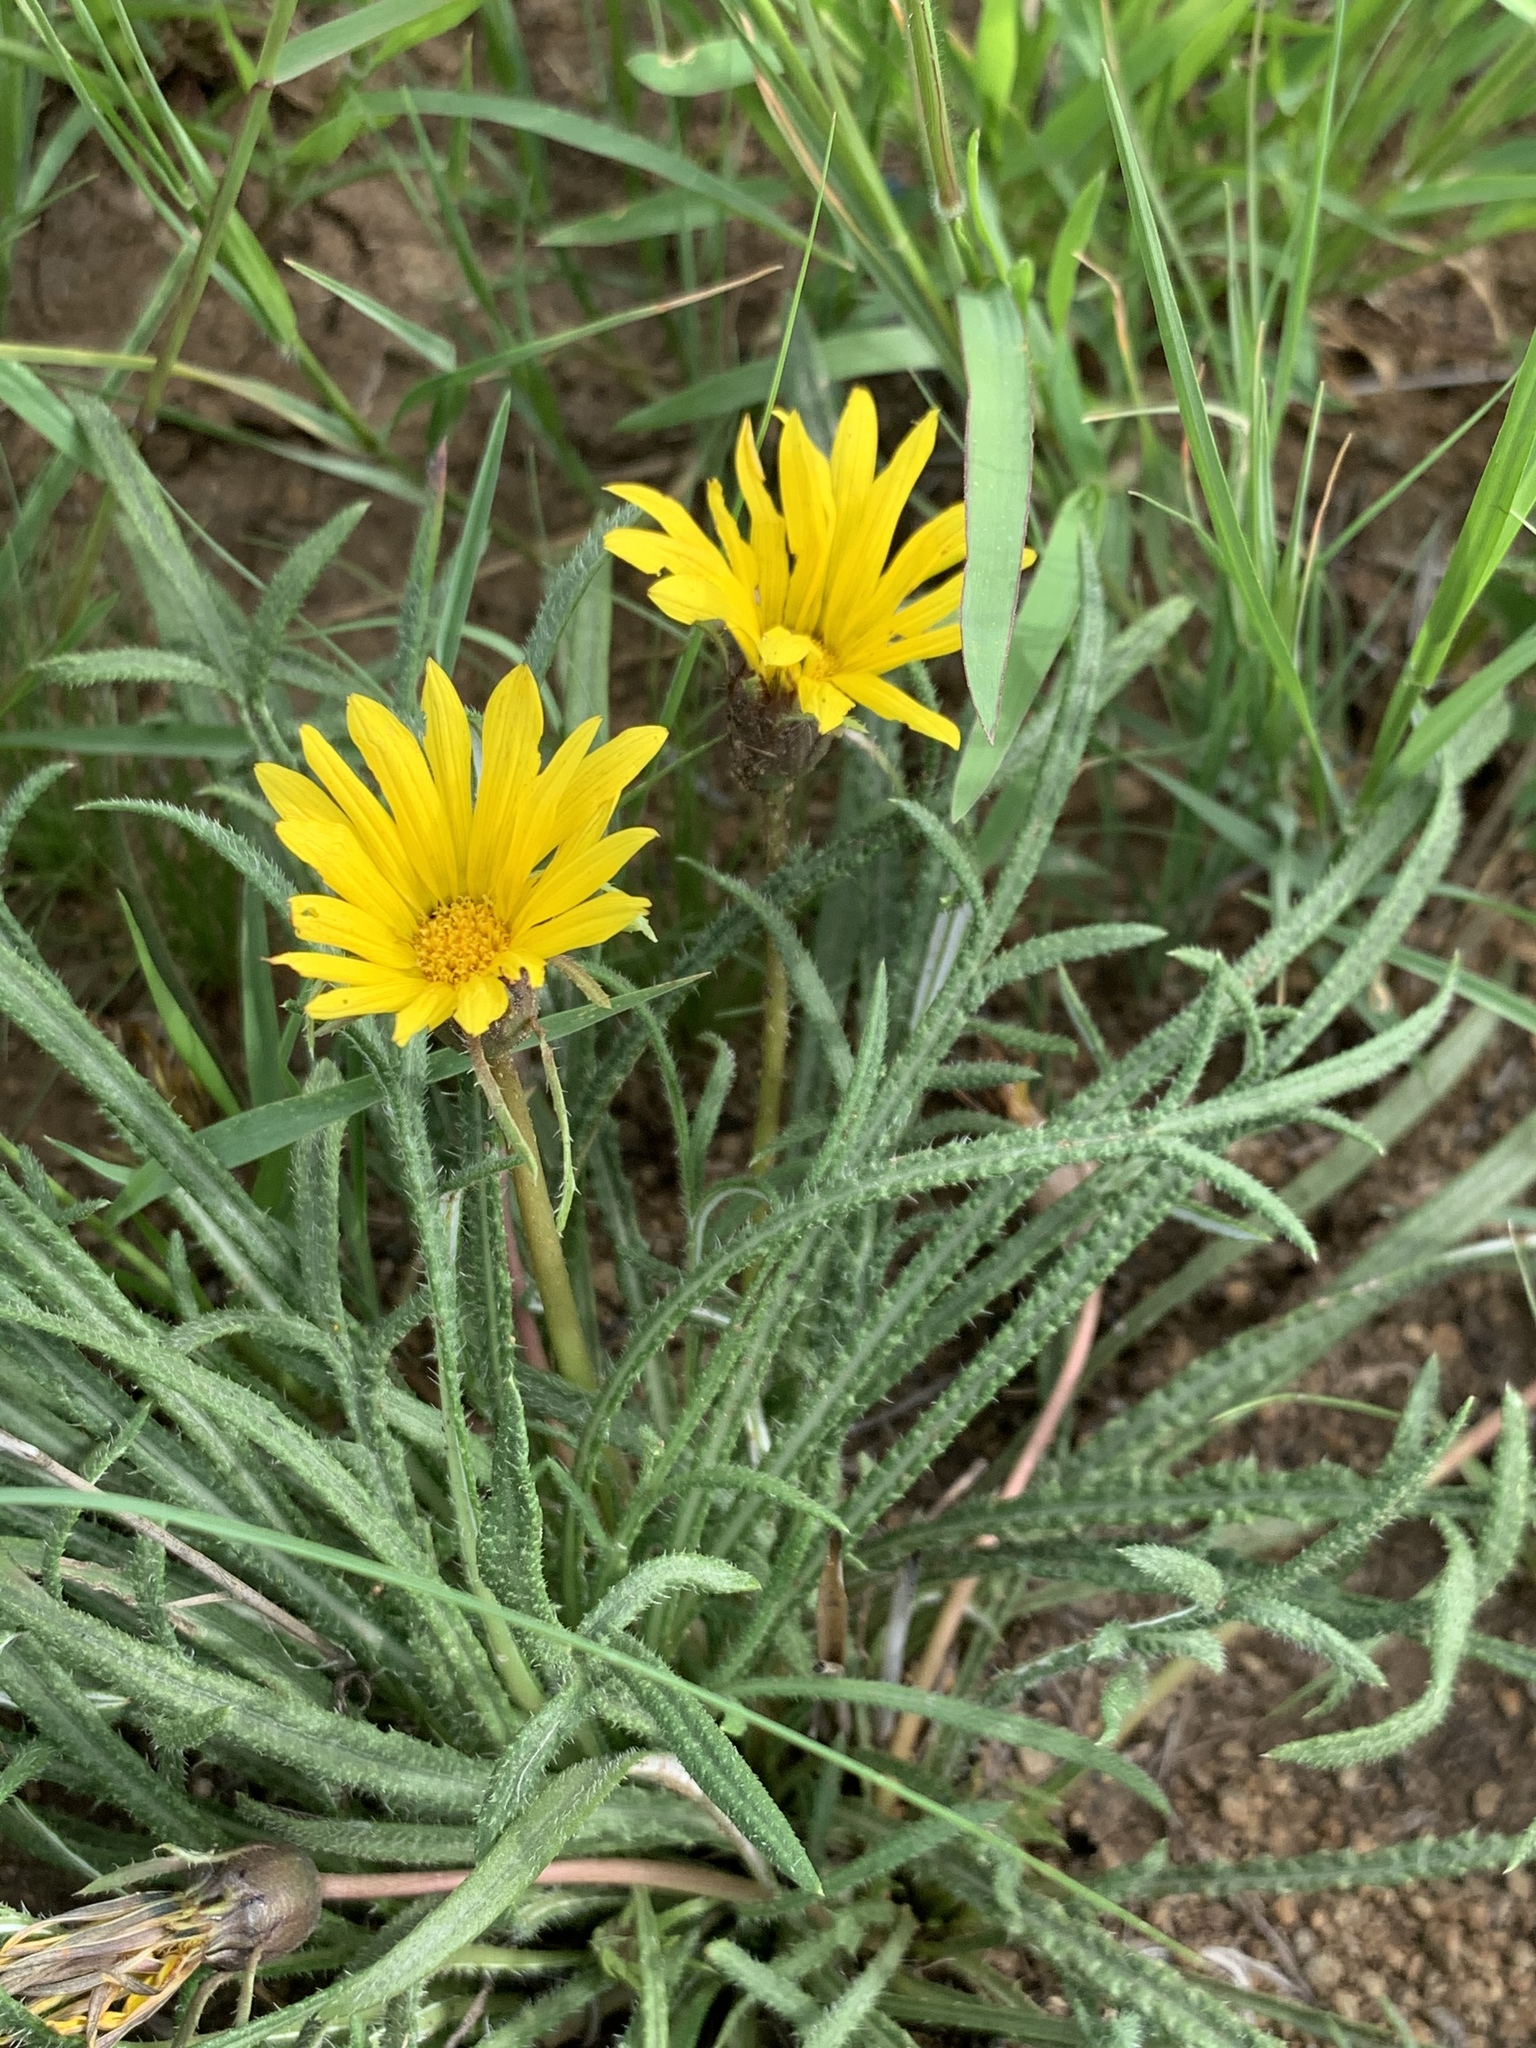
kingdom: Plantae
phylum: Tracheophyta
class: Magnoliopsida
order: Asterales
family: Asteraceae
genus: Gazania
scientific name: Gazania krebsiana
